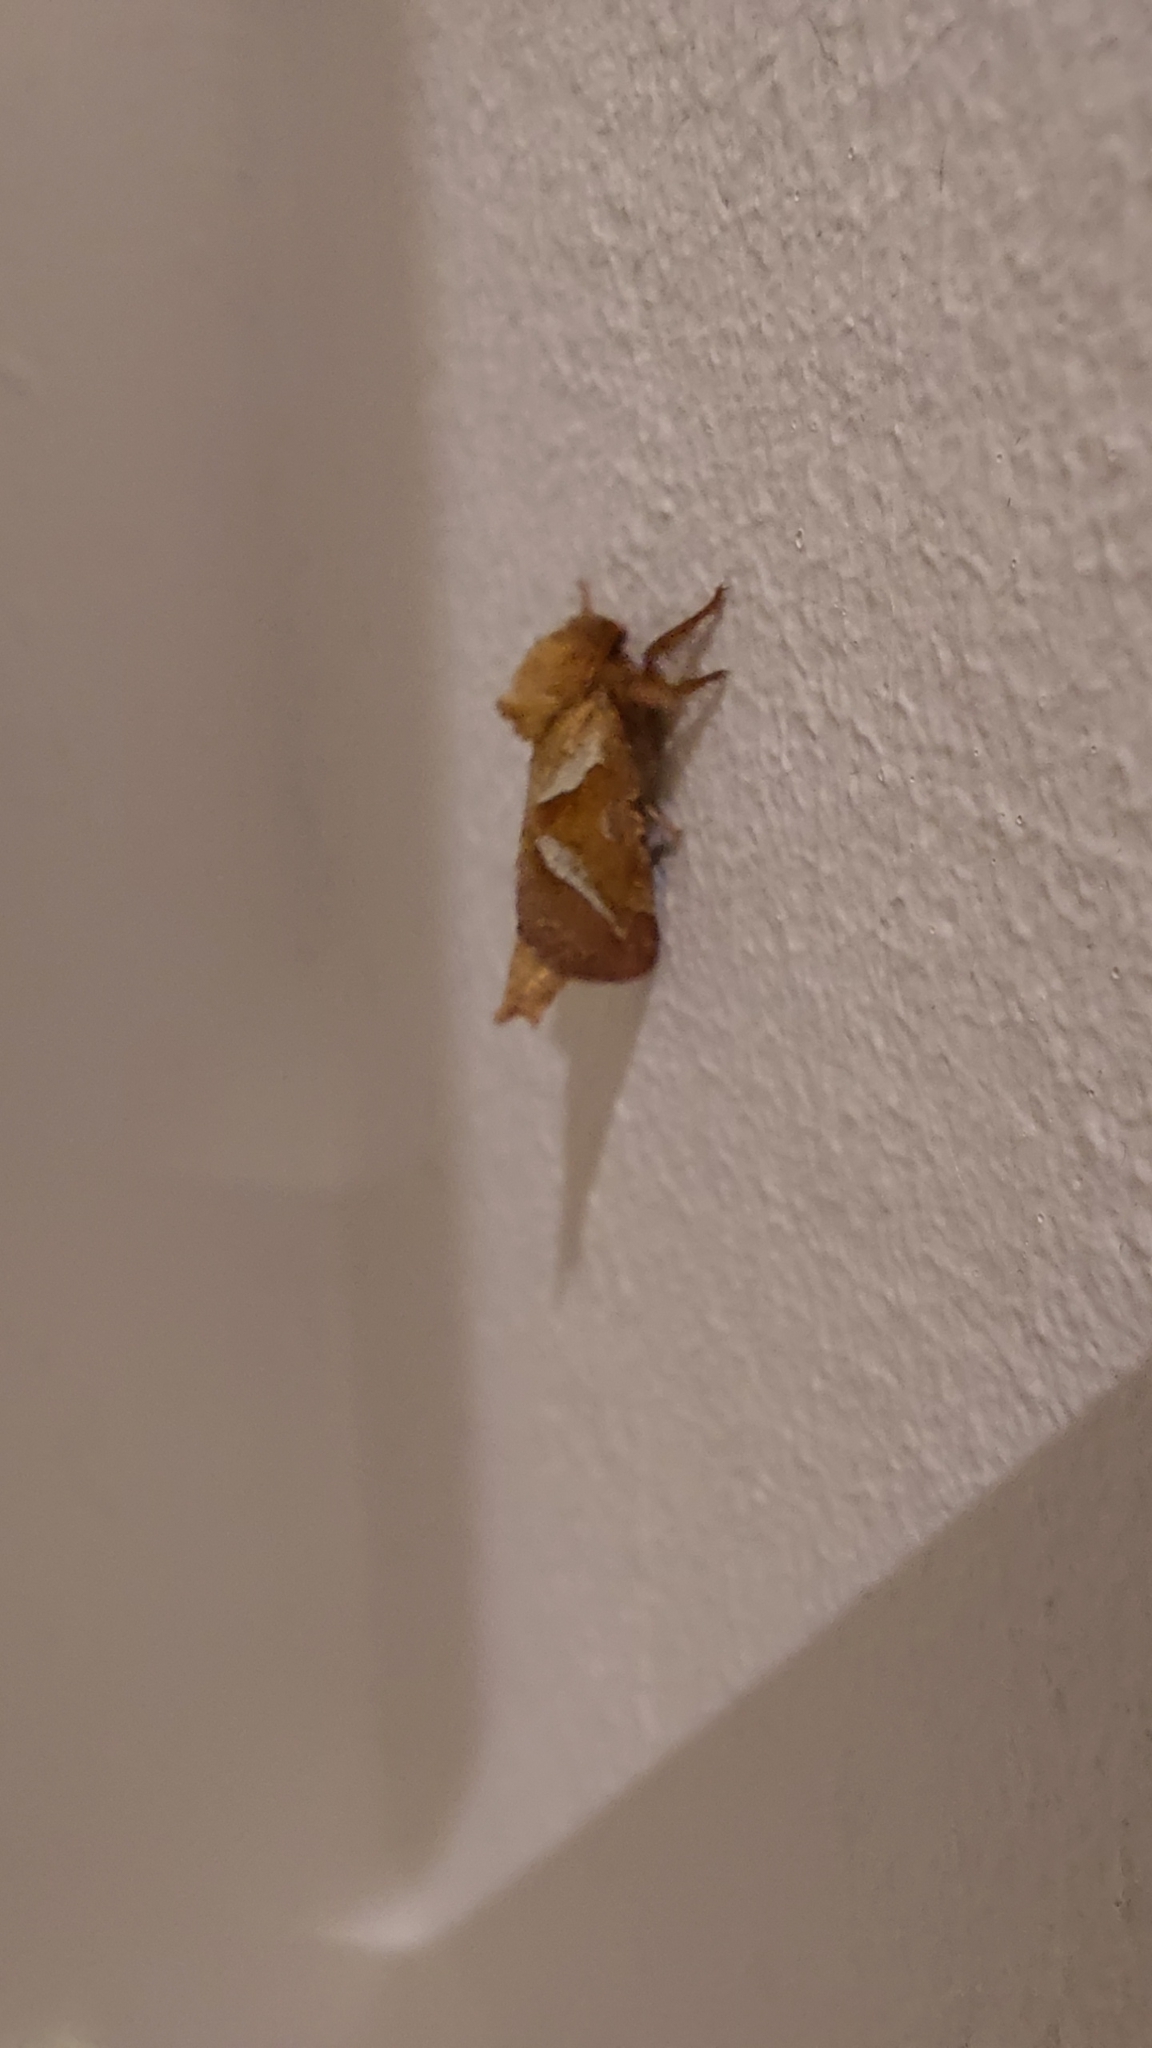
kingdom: Animalia
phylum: Arthropoda
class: Insecta
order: Lepidoptera
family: Hepialidae
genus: Triodia
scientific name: Triodia sylvina
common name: Orange swift
